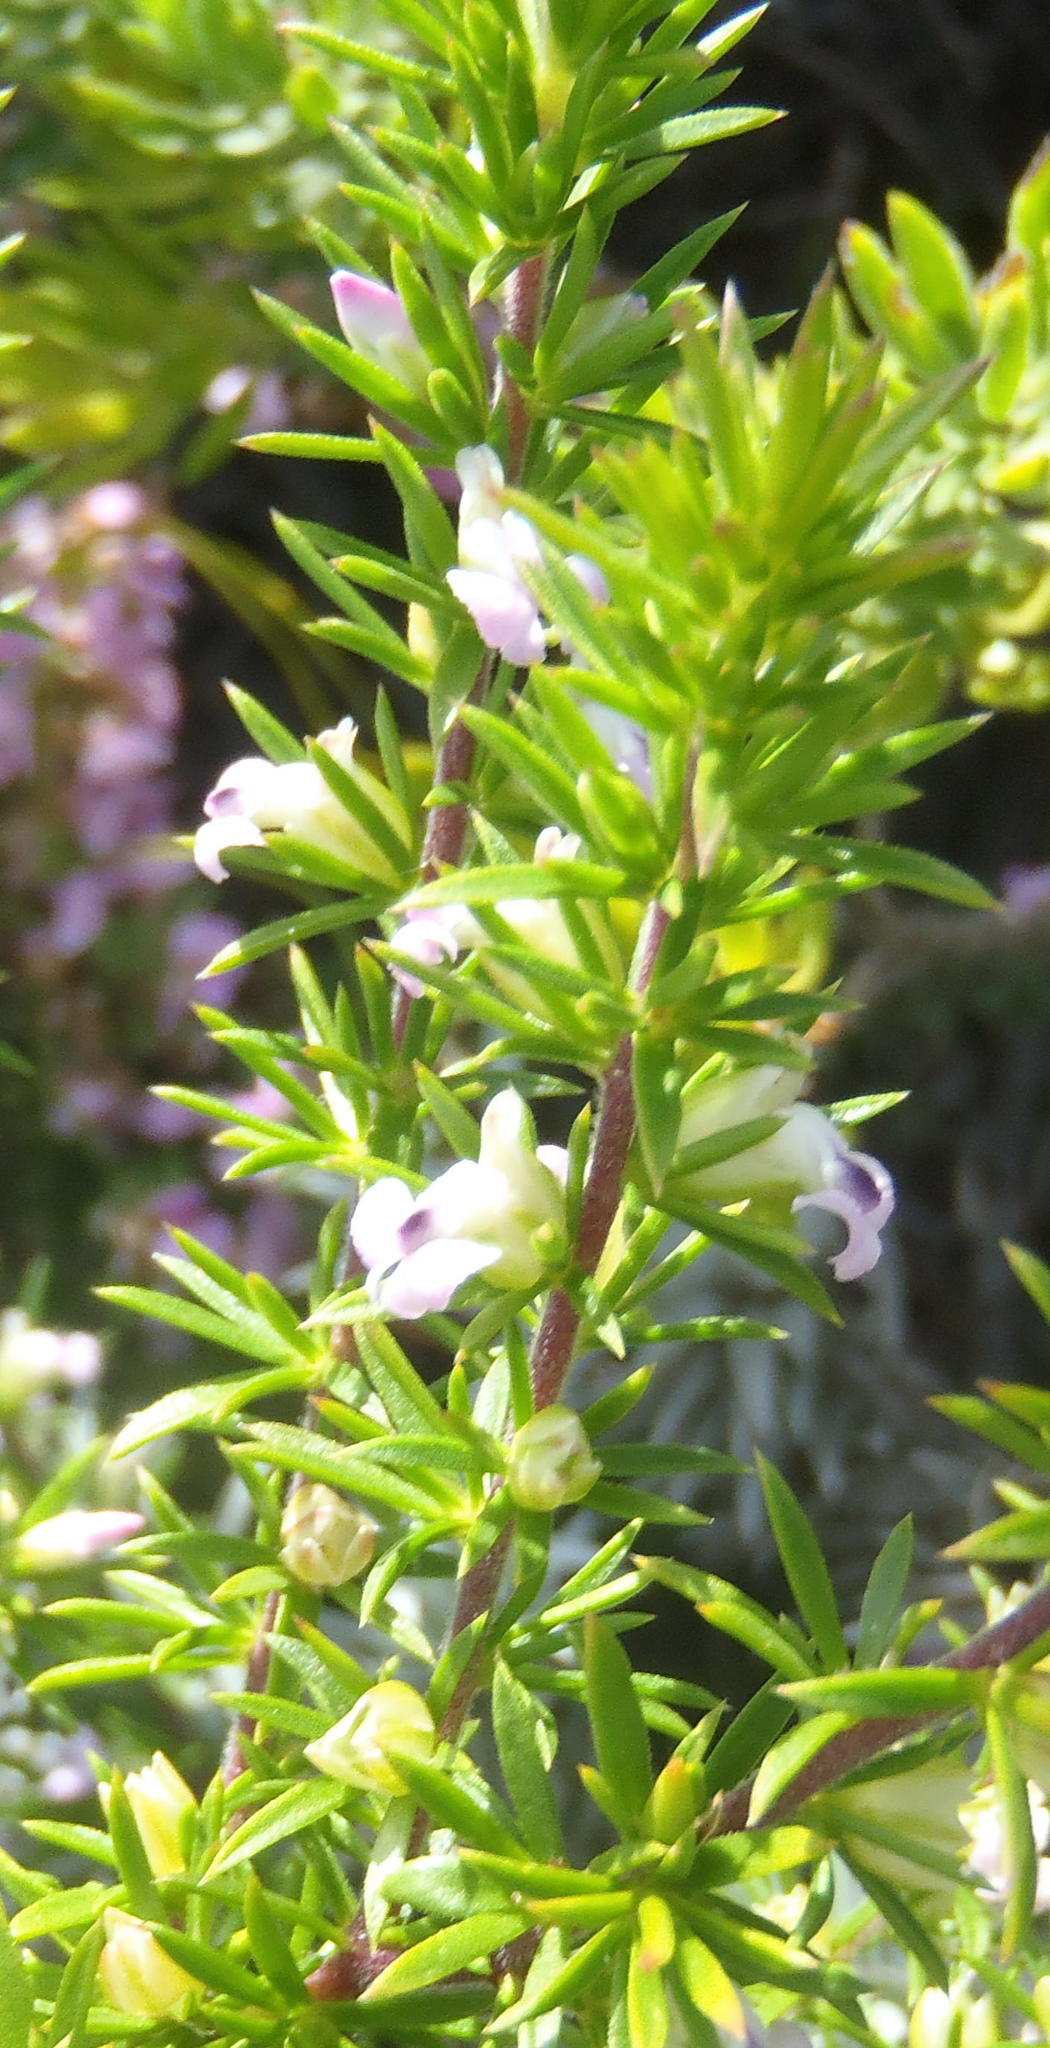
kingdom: Plantae
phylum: Tracheophyta
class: Magnoliopsida
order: Fabales
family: Polygalaceae
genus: Muraltia
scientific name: Muraltia ericifolia
